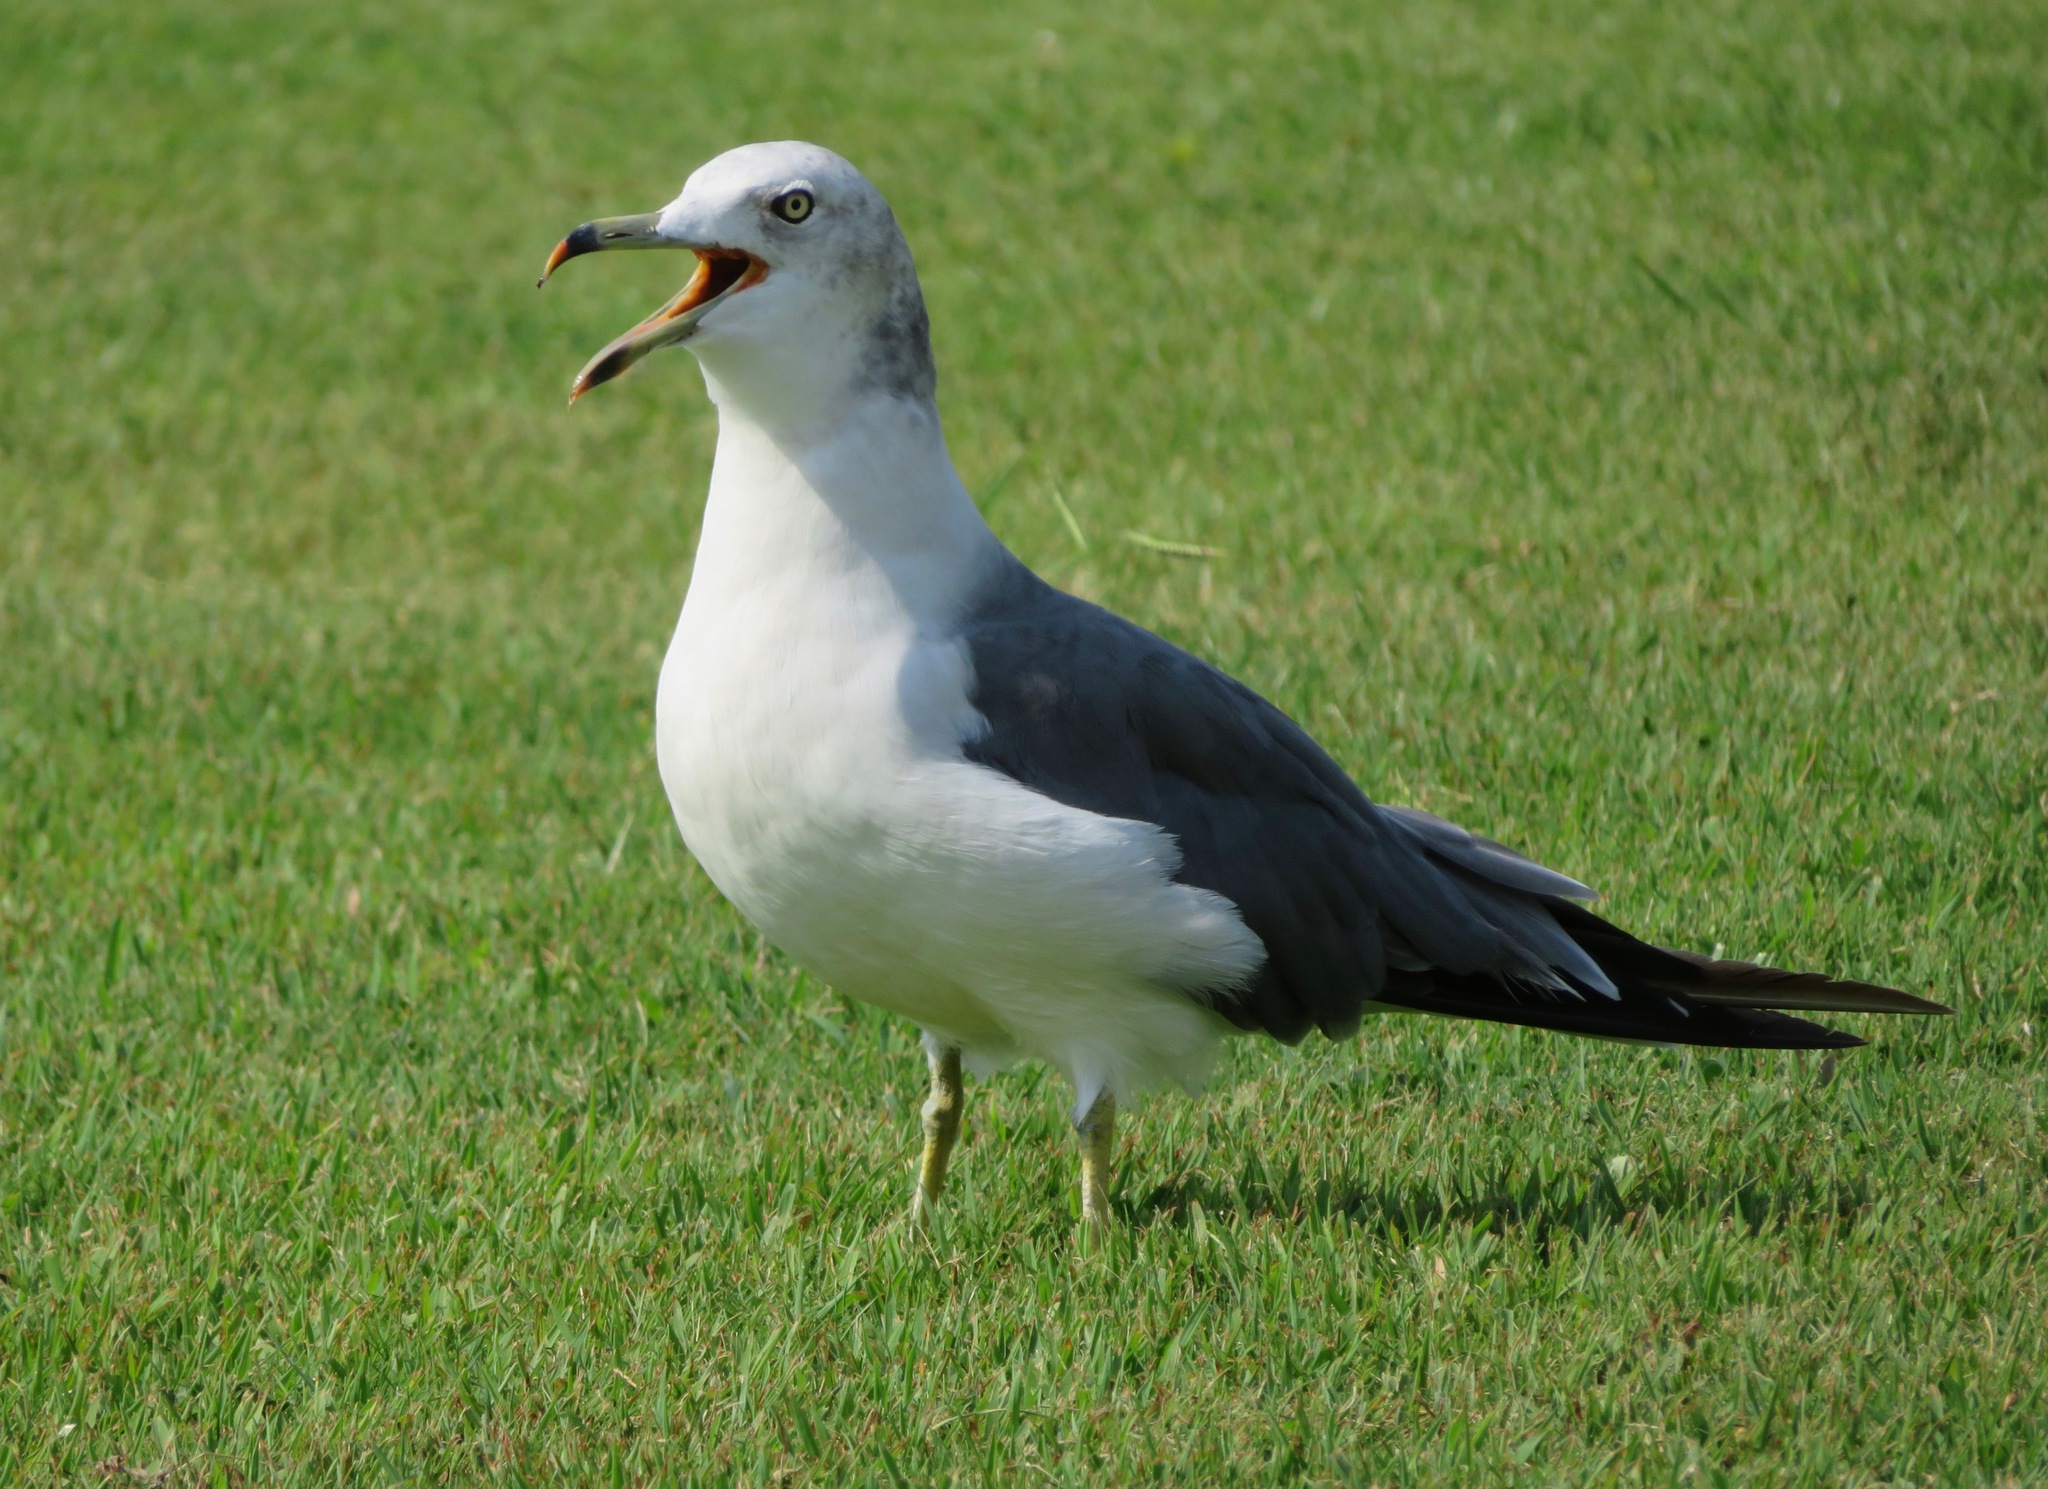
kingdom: Animalia
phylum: Chordata
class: Aves
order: Charadriiformes
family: Laridae
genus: Larus
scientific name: Larus crassirostris
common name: Black-tailed gull
